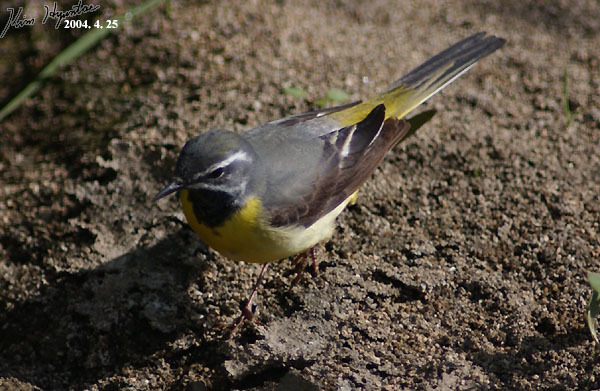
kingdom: Animalia
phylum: Chordata
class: Aves
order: Passeriformes
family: Motacillidae
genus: Motacilla
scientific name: Motacilla cinerea
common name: Grey wagtail
